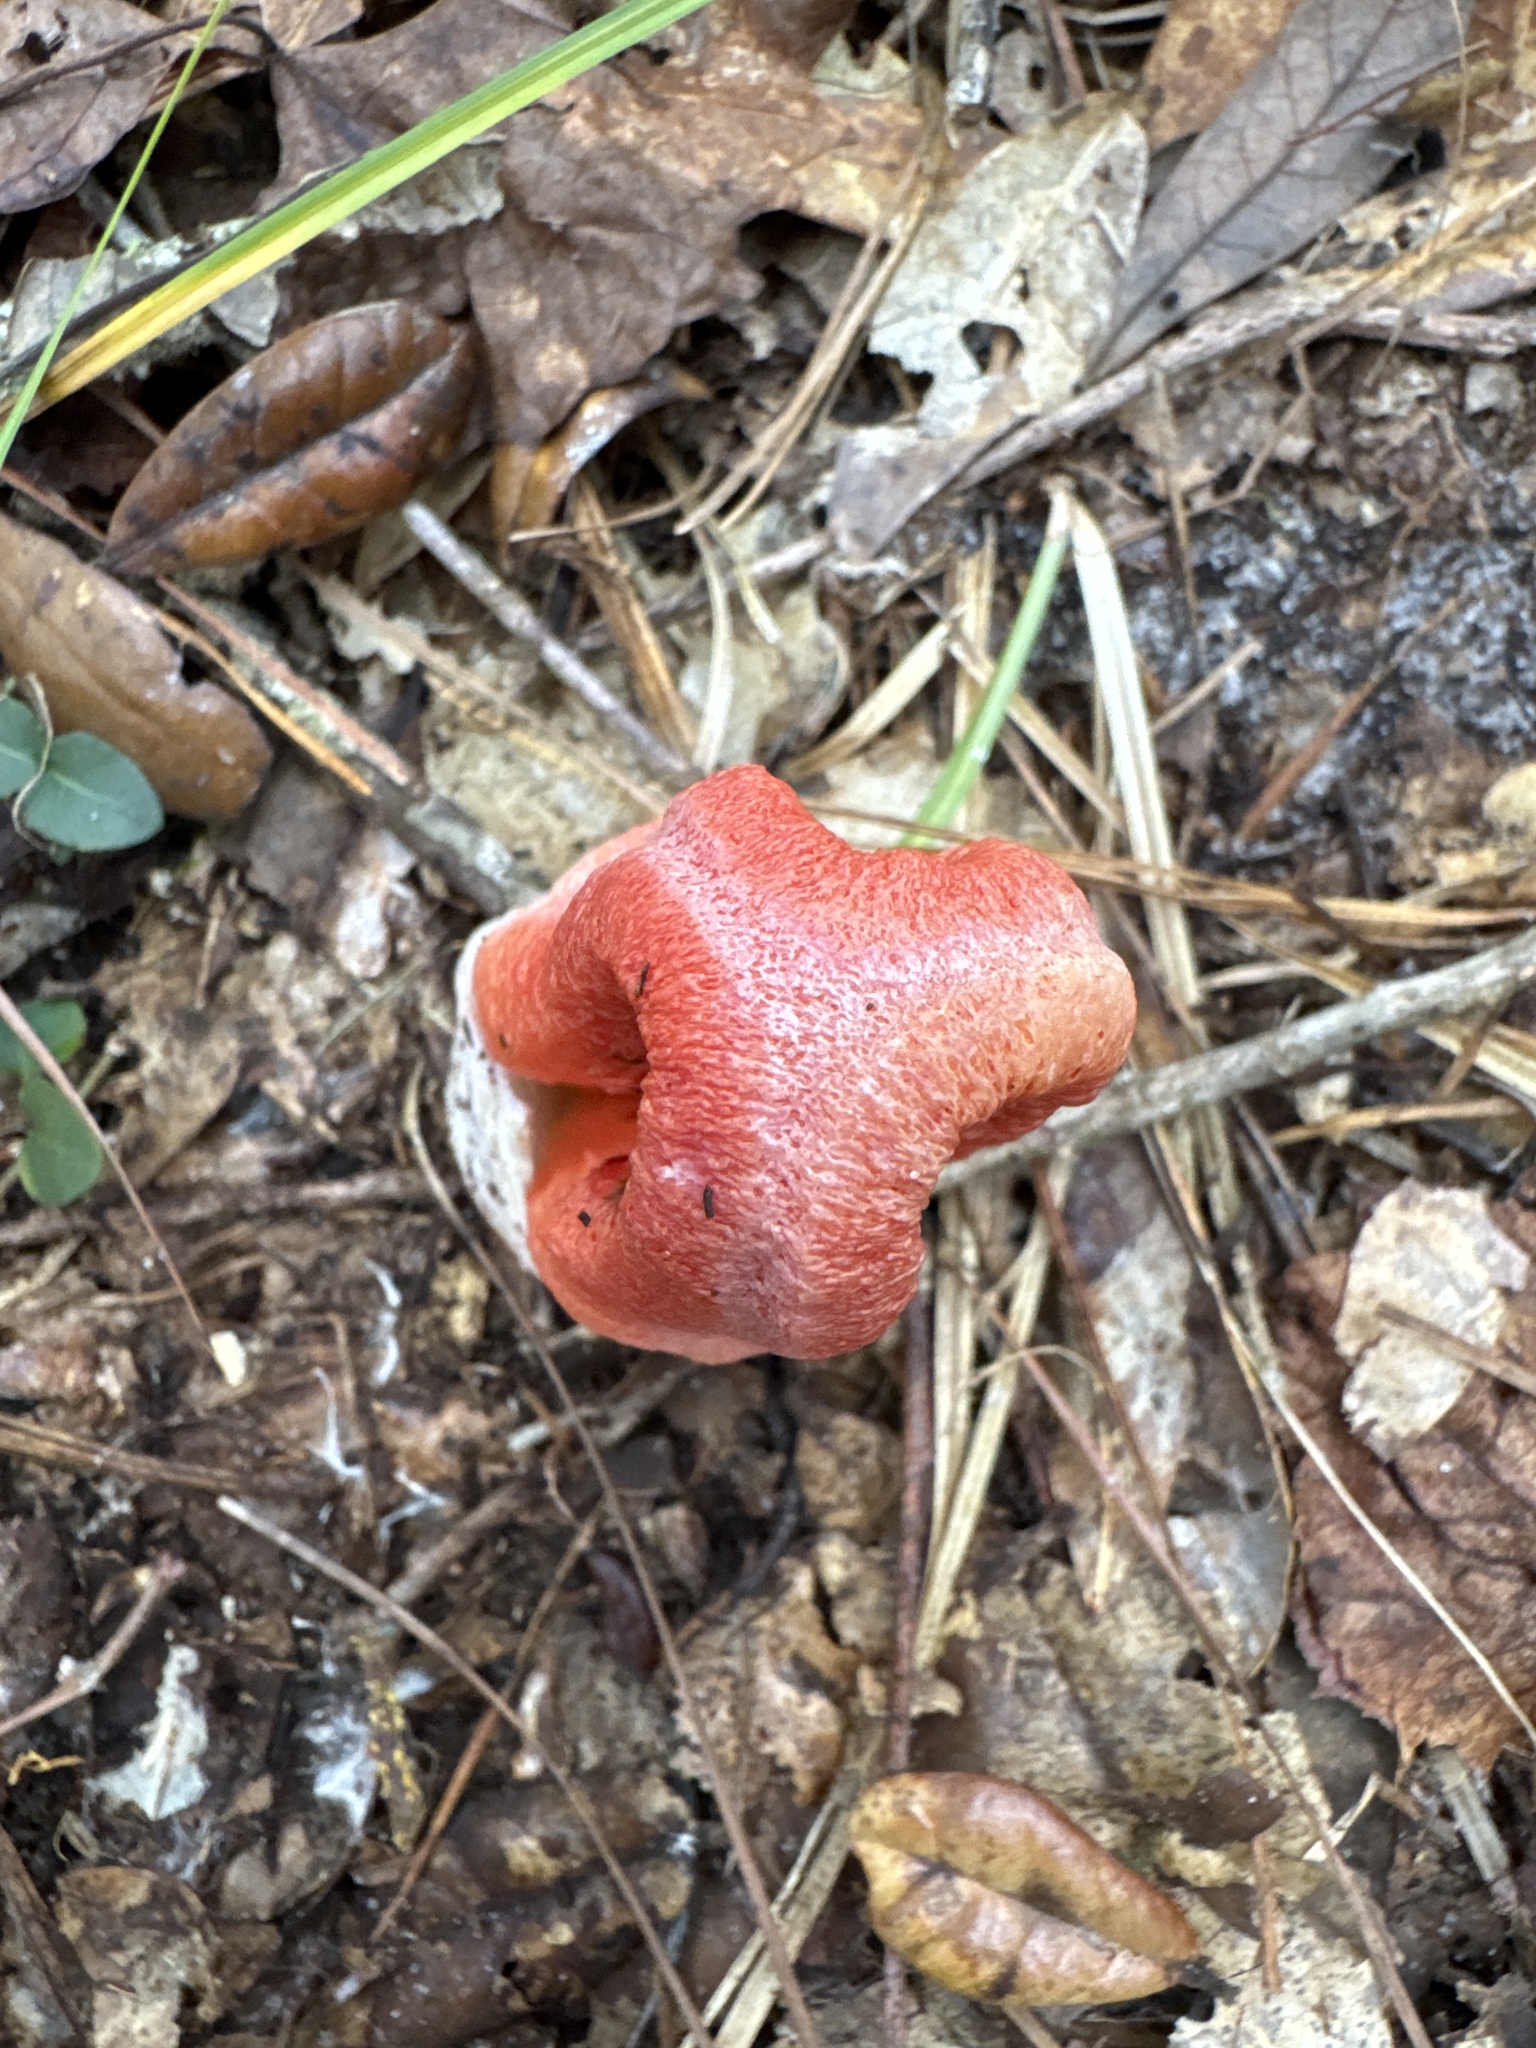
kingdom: Fungi
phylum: Basidiomycota
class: Agaricomycetes
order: Phallales
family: Phallaceae
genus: Clathrus
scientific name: Clathrus columnatus
